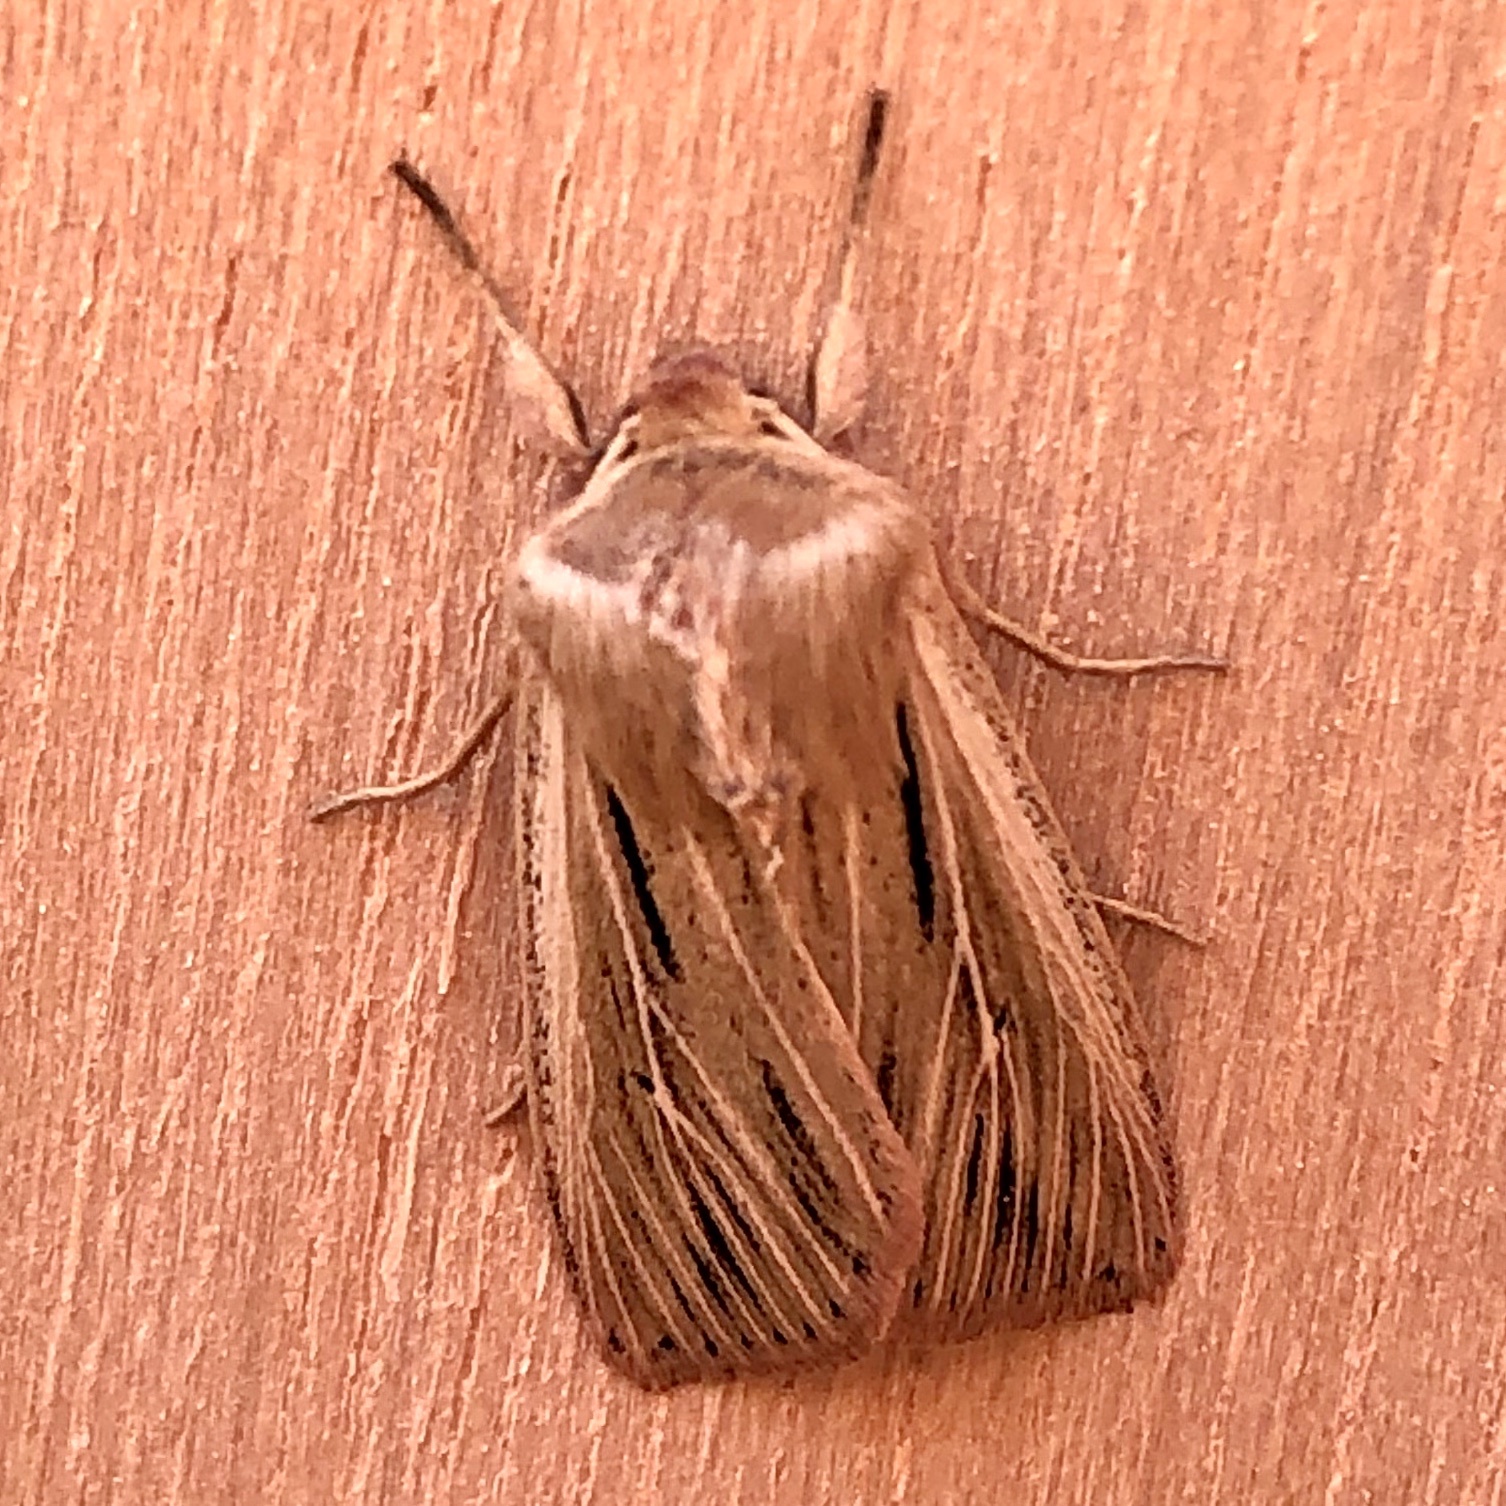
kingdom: Animalia
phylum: Arthropoda
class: Insecta
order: Lepidoptera
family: Noctuidae
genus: Leucania
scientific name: Leucania comma
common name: Shoulder-striped wainscot
